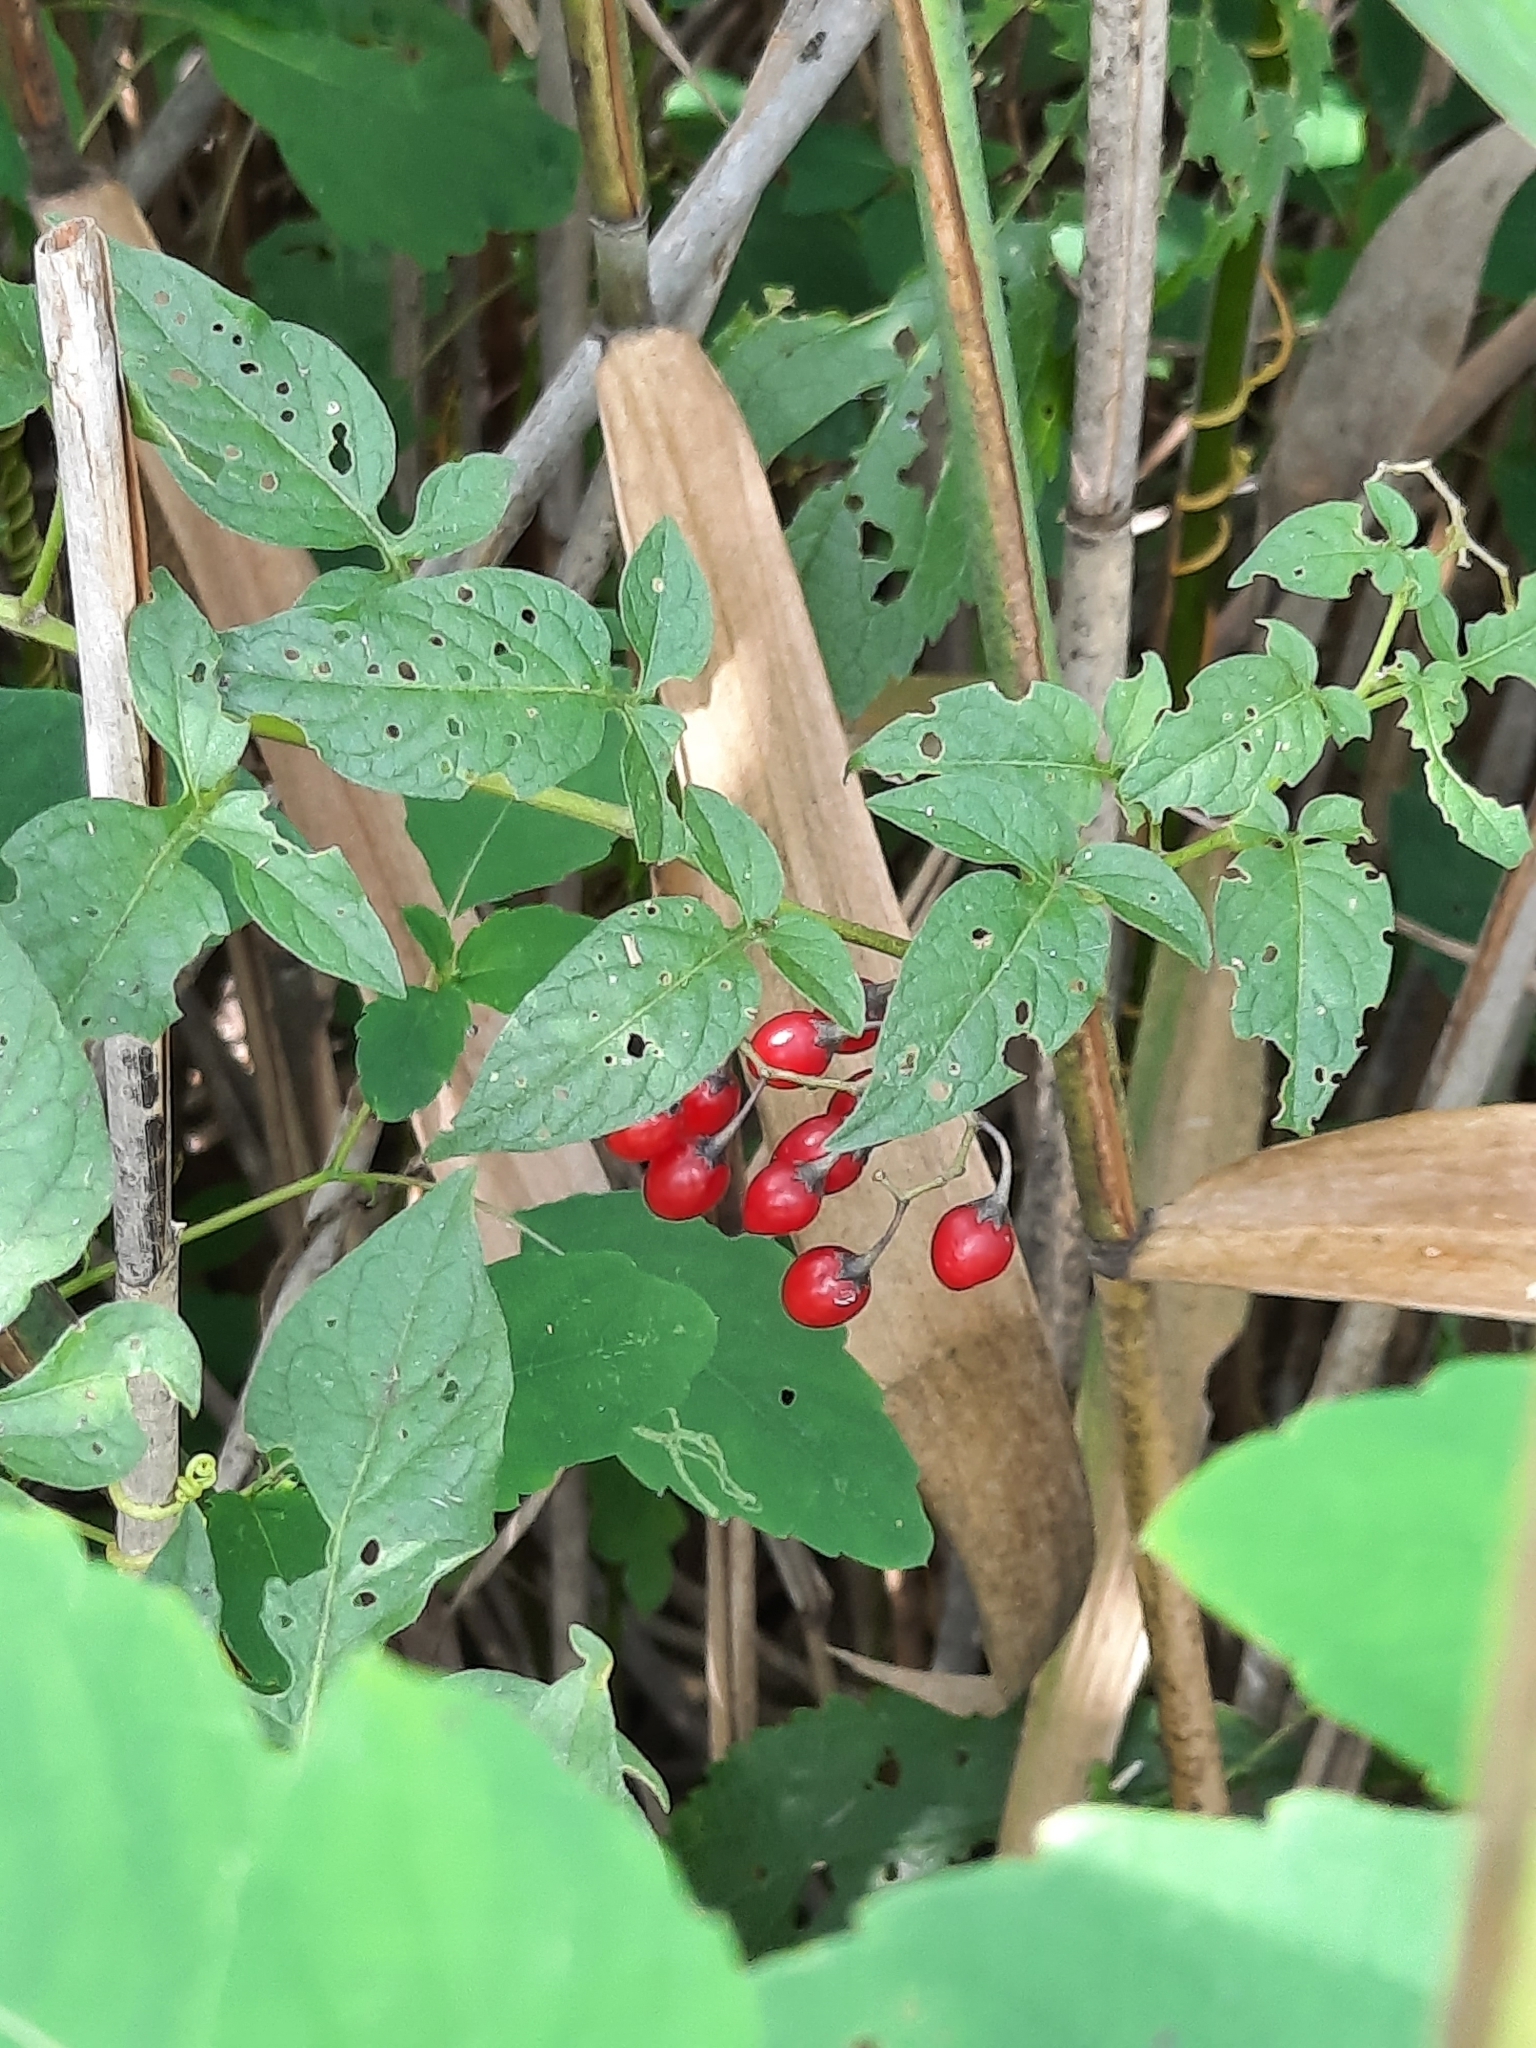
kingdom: Plantae
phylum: Tracheophyta
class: Magnoliopsida
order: Solanales
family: Solanaceae
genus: Solanum
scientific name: Solanum dulcamara
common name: Climbing nightshade
